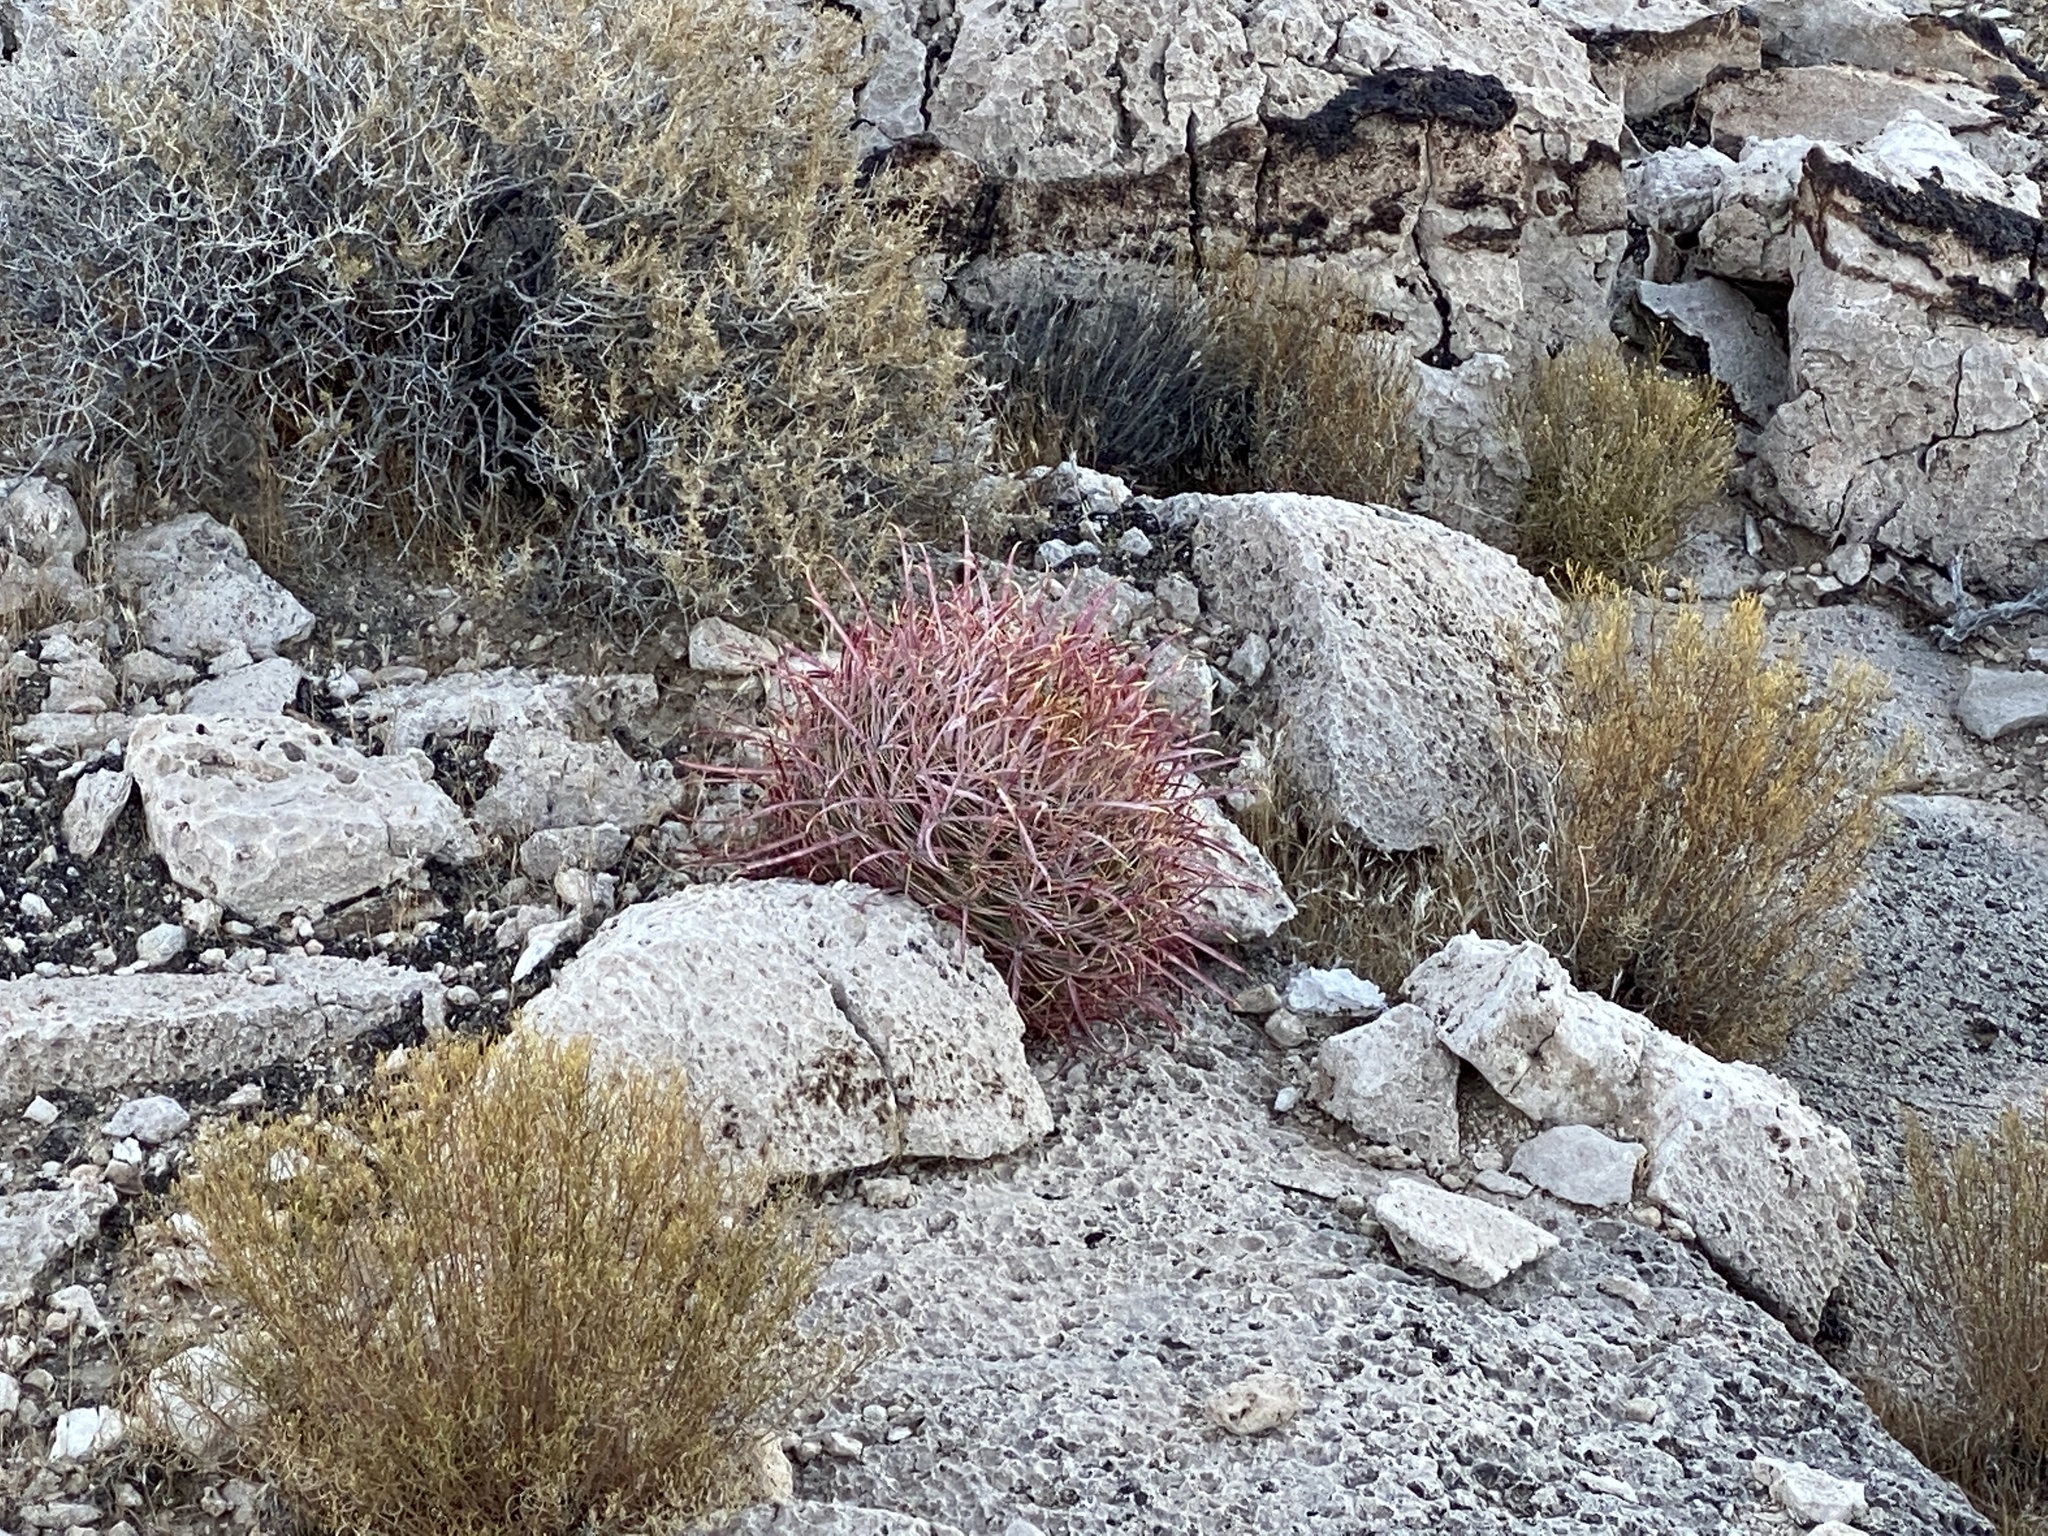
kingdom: Plantae
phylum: Tracheophyta
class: Magnoliopsida
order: Caryophyllales
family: Cactaceae
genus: Ferocactus
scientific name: Ferocactus cylindraceus
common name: California barrel cactus
